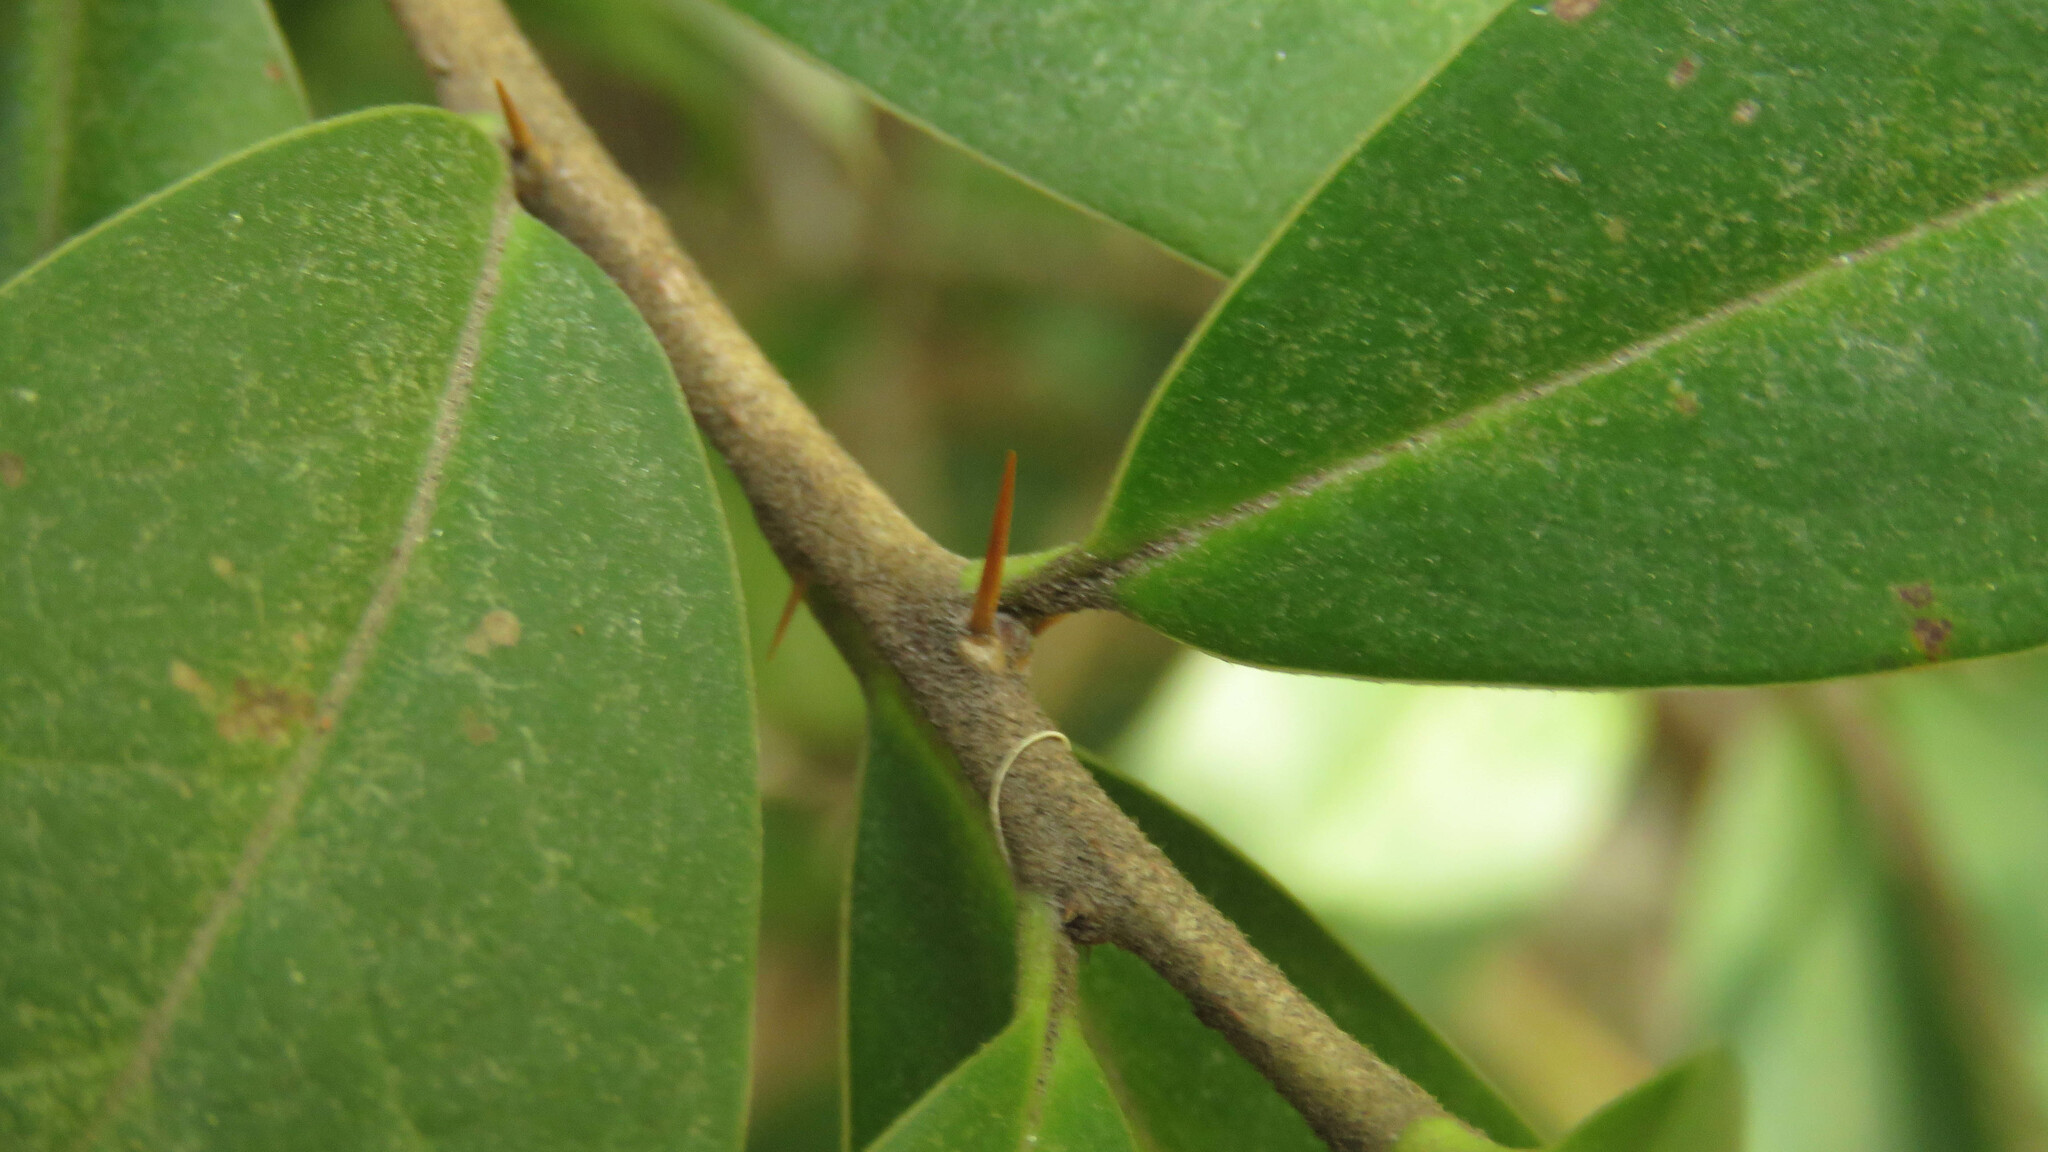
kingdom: Plantae
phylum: Tracheophyta
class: Magnoliopsida
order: Asterales
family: Asteraceae
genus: Archidasyphyllum
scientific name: Archidasyphyllum diacanthoides
